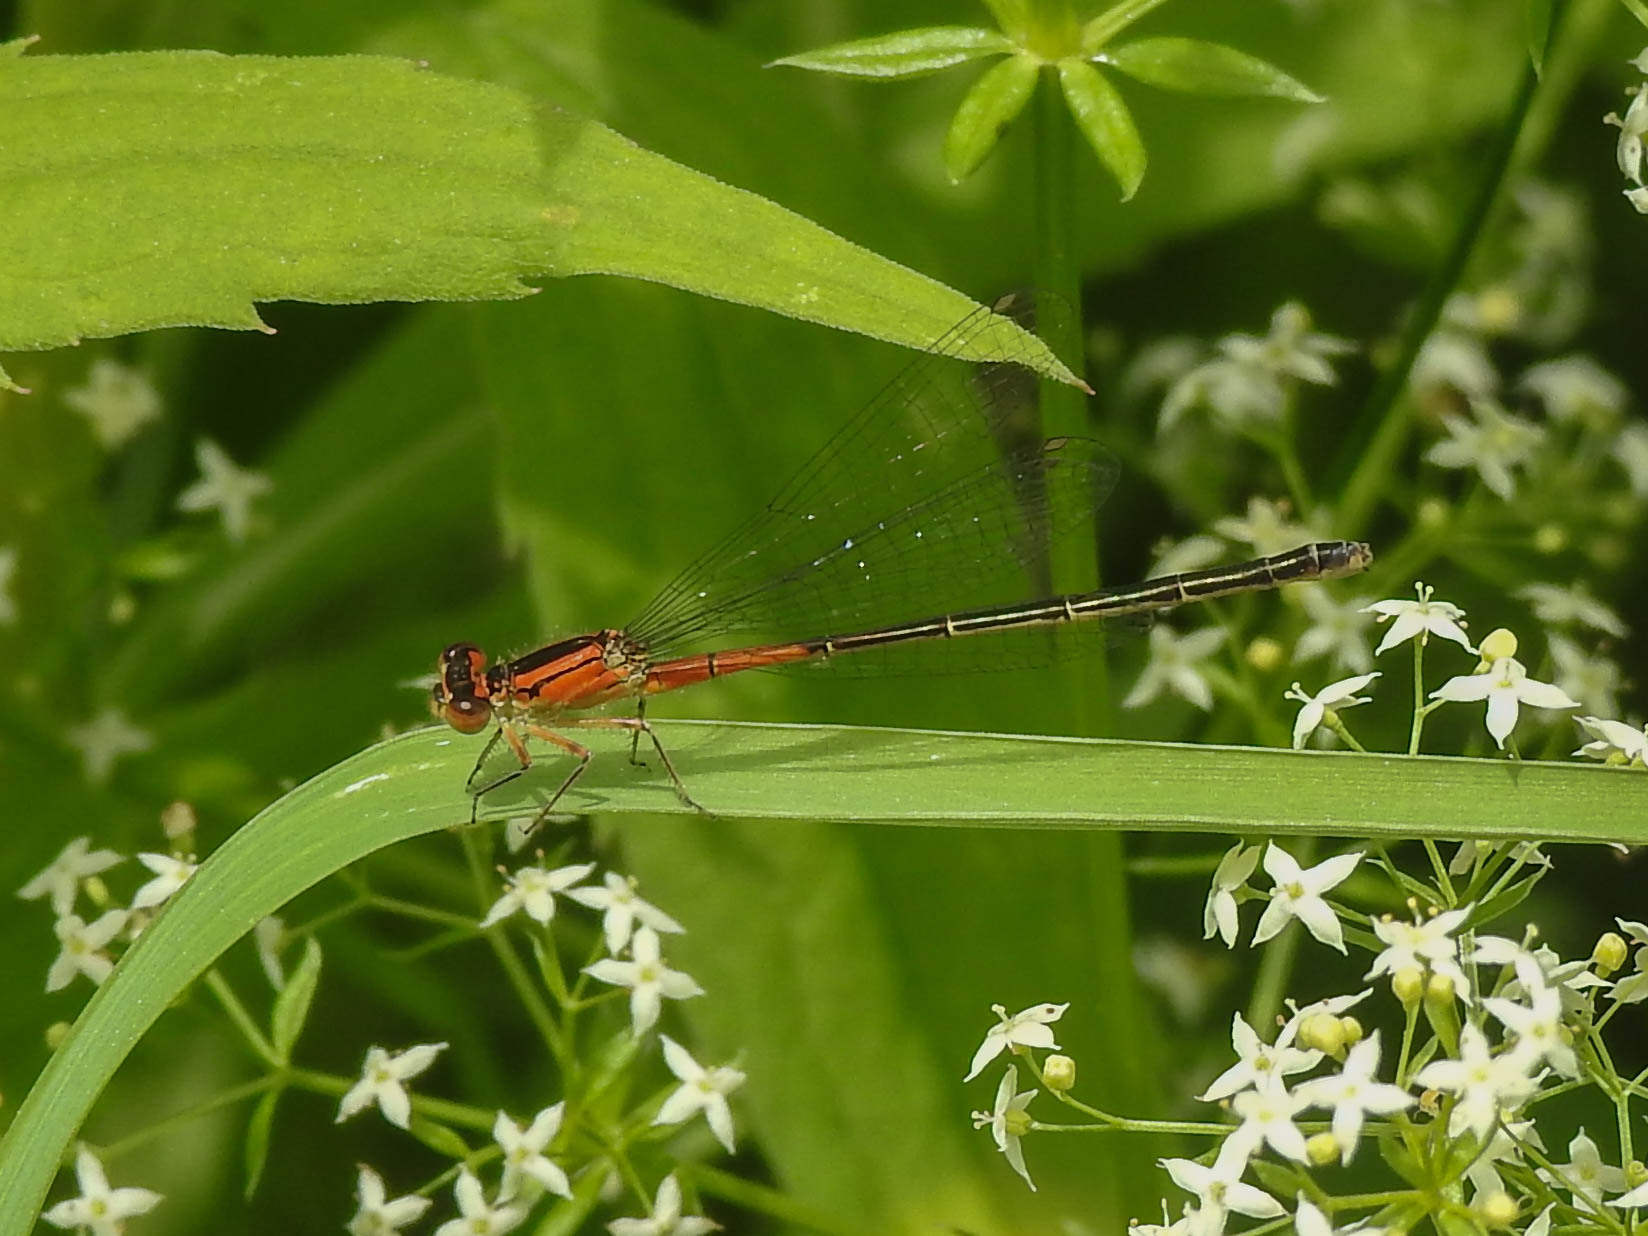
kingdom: Animalia
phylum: Arthropoda
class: Insecta
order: Odonata
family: Coenagrionidae
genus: Ischnura
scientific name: Ischnura verticalis
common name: Eastern forktail
